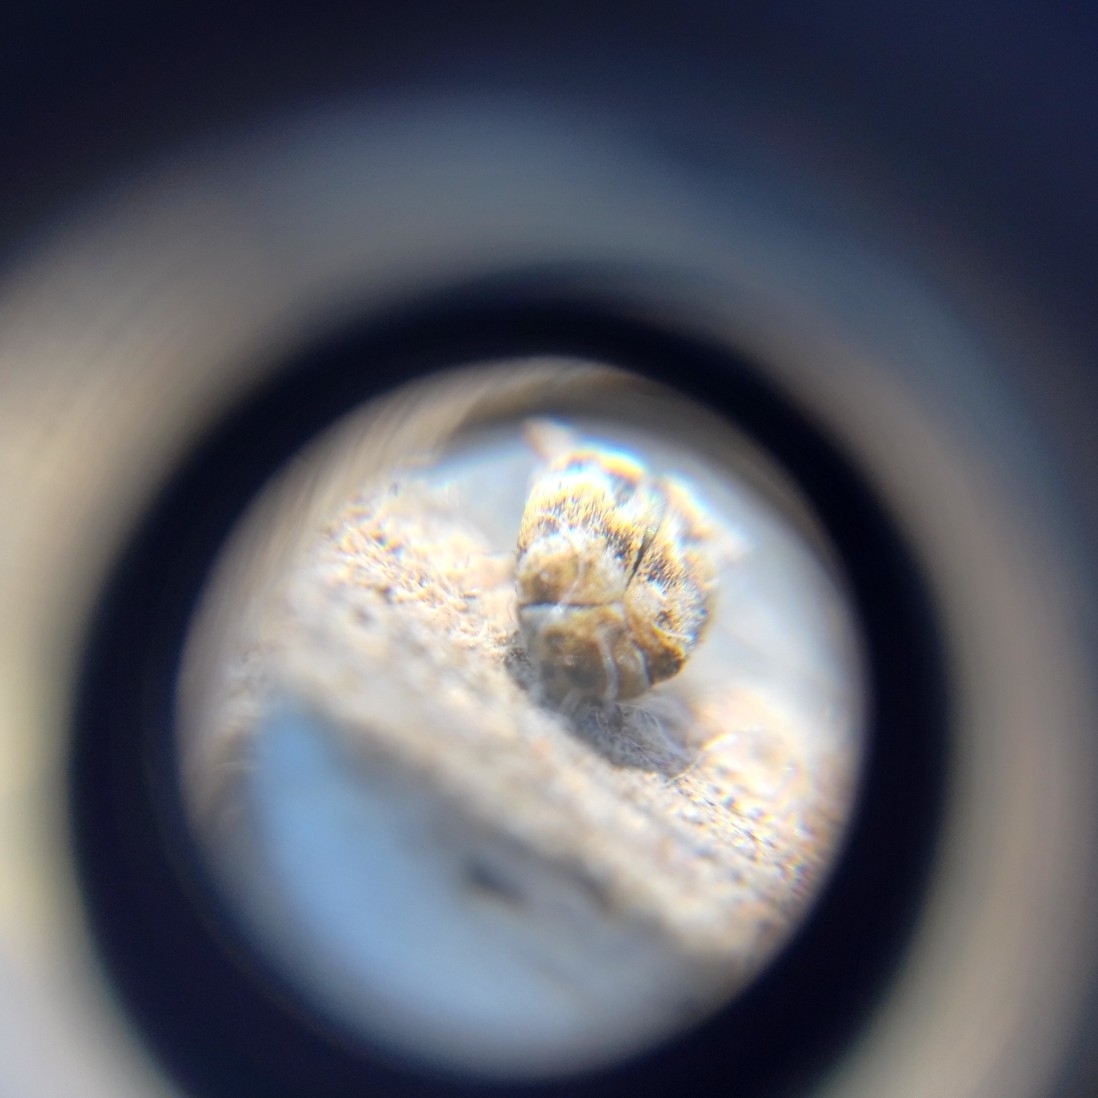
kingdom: Animalia
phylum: Arthropoda
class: Insecta
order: Coleoptera
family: Dermestidae
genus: Anthrenus
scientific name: Anthrenus verbasci
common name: Varied carpet beetle
